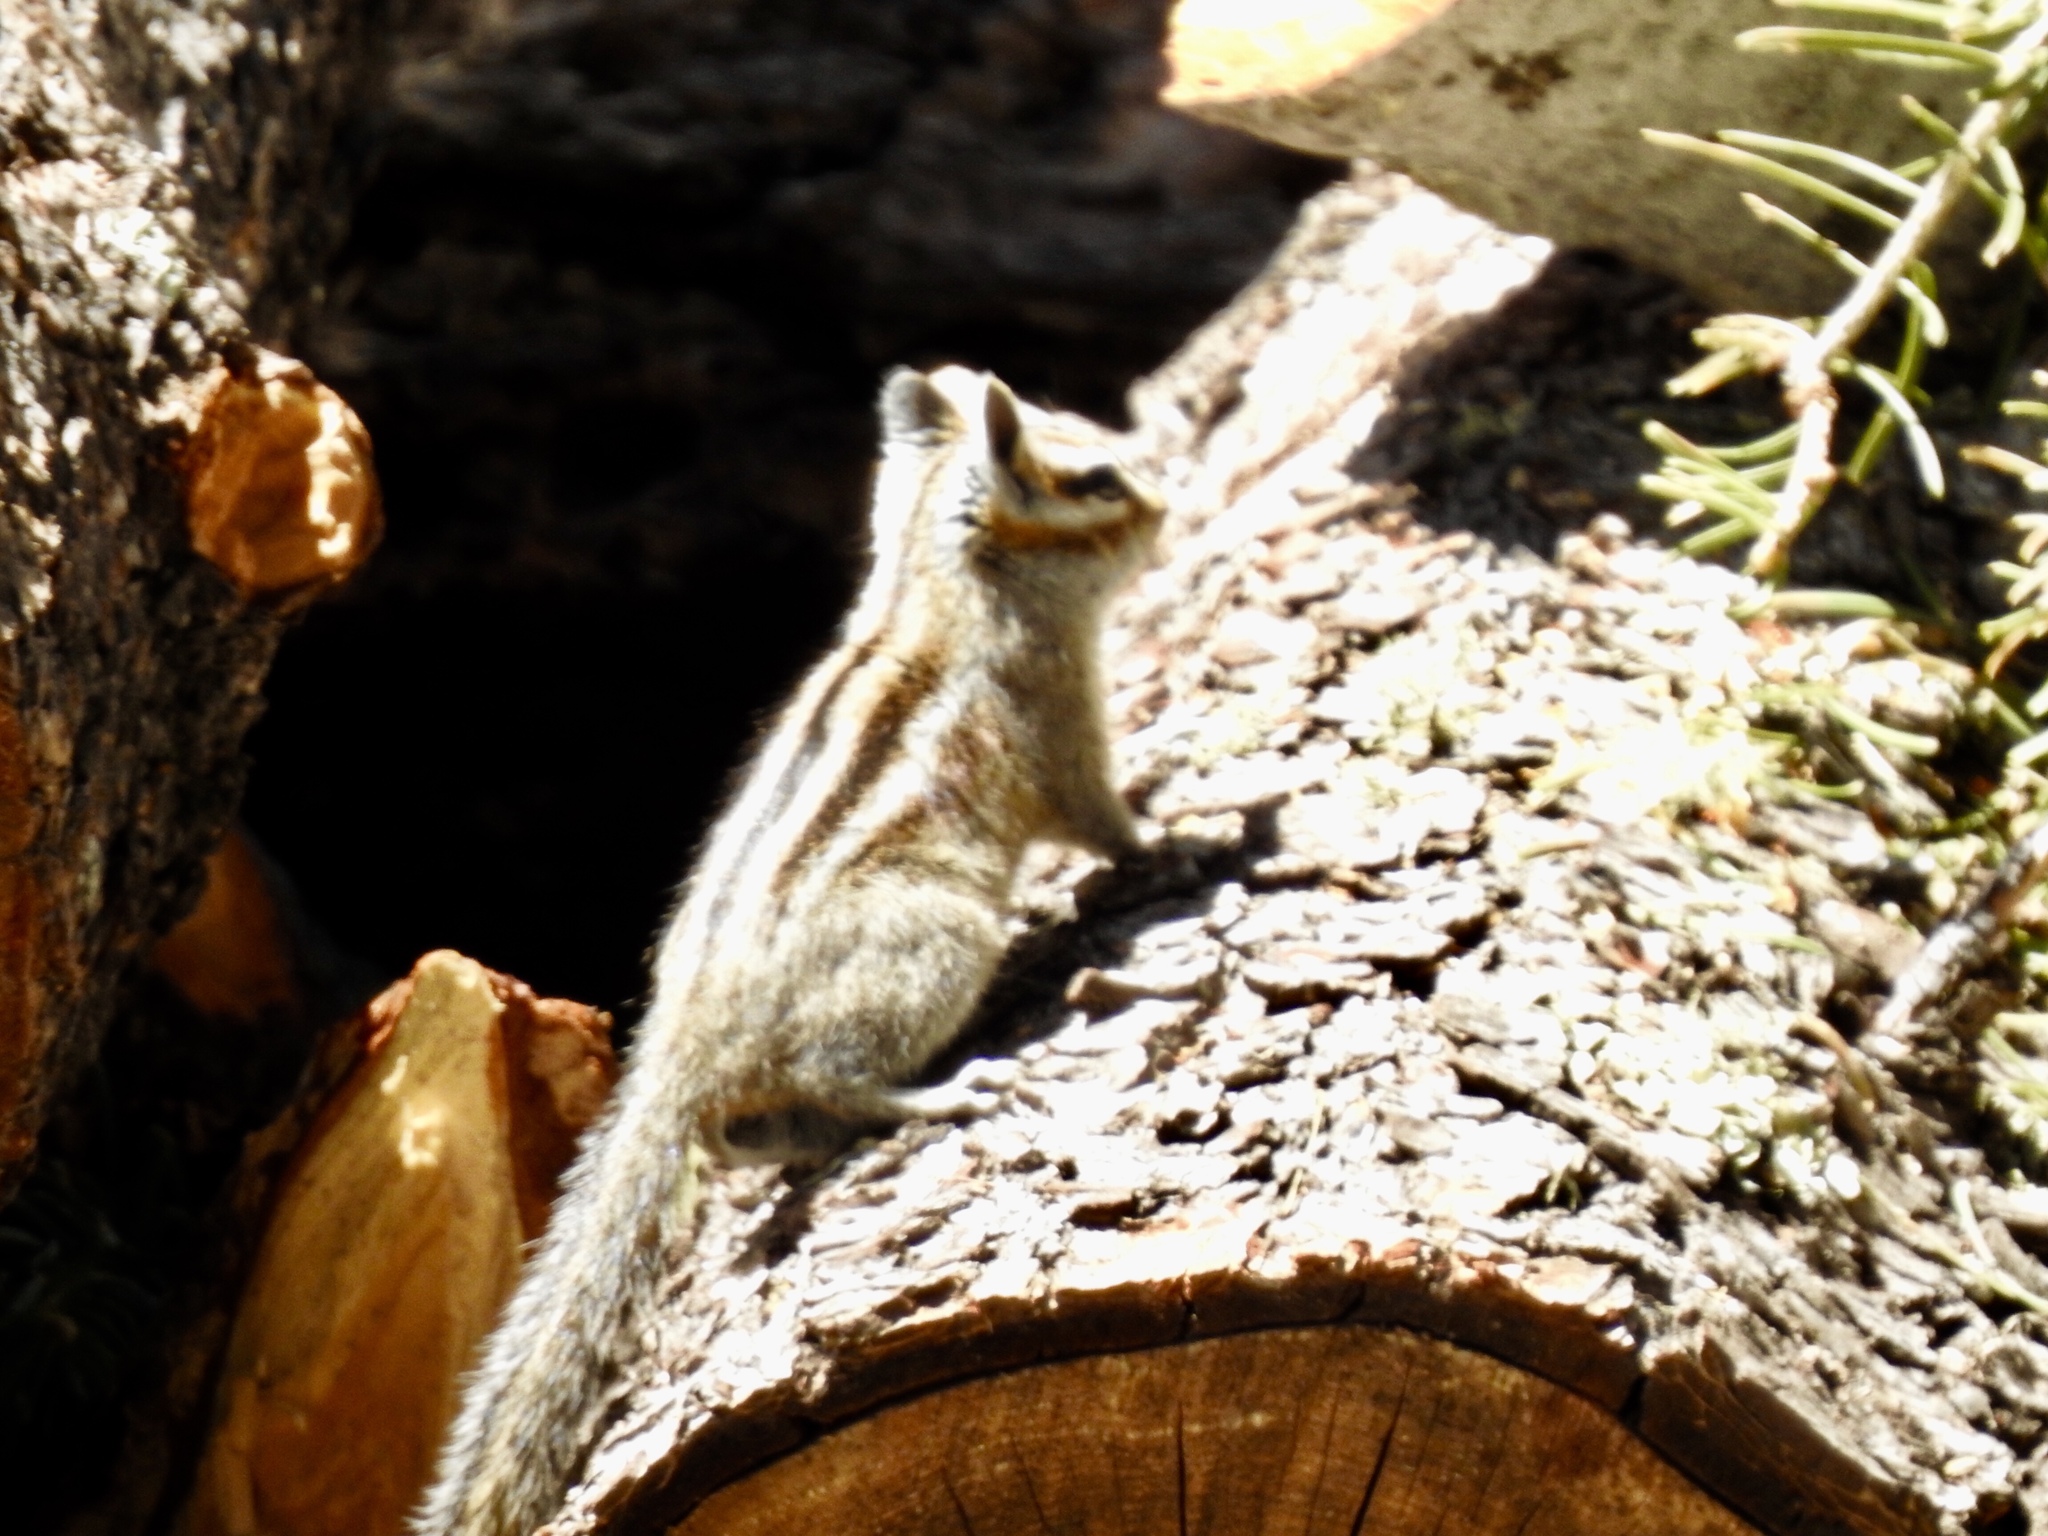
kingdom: Animalia
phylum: Chordata
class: Mammalia
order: Rodentia
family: Sciuridae
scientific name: Sciuridae
